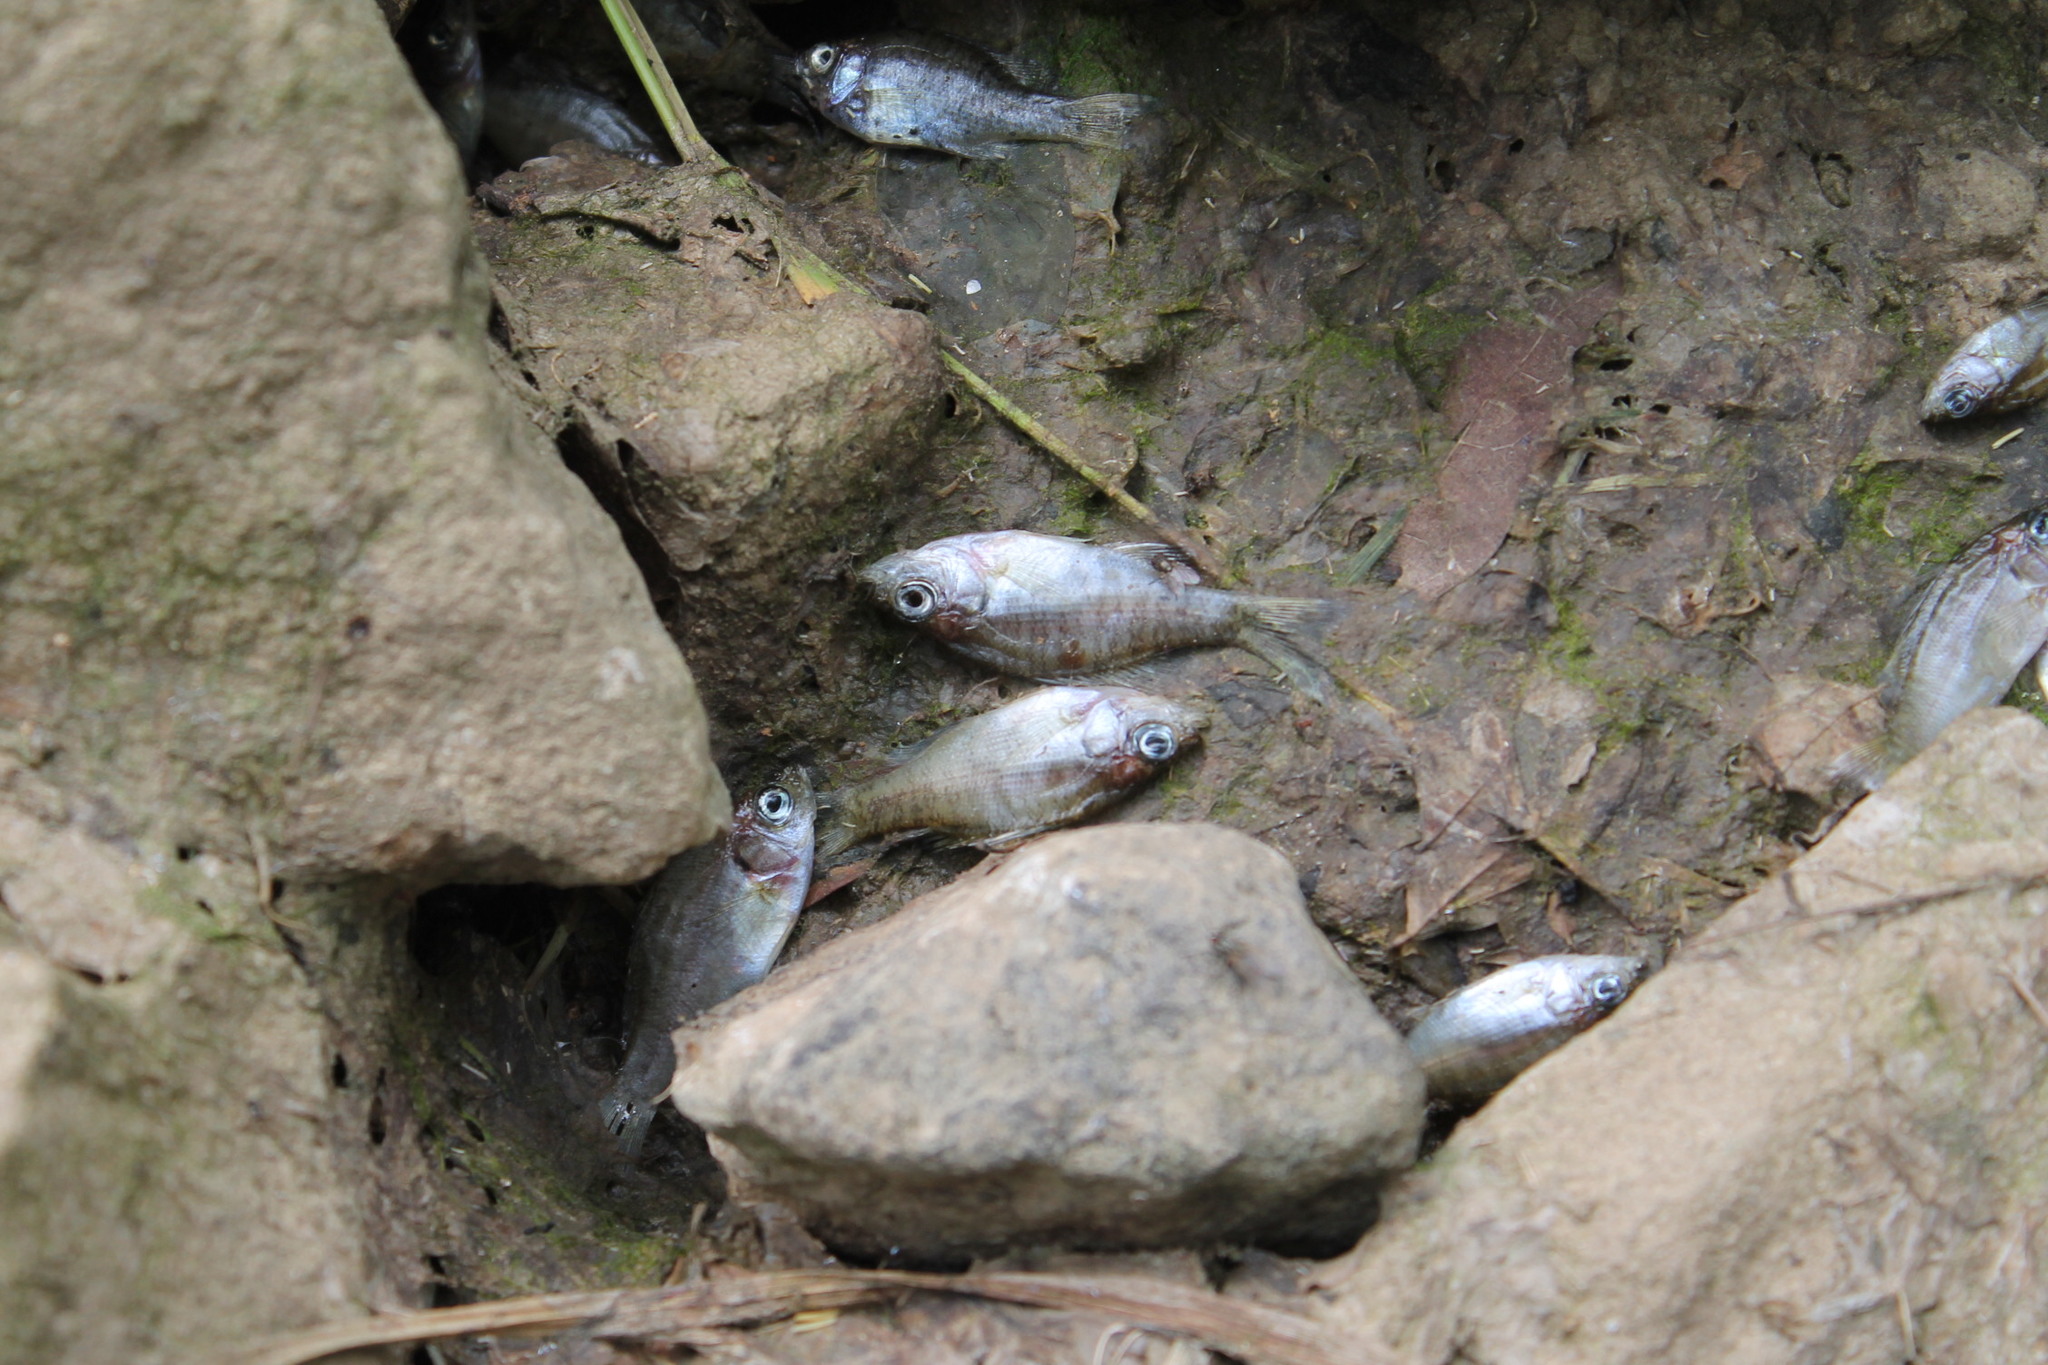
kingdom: Animalia
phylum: Chordata
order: Perciformes
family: Centrarchidae
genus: Lepomis
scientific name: Lepomis macrochirus
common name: Bluegill
